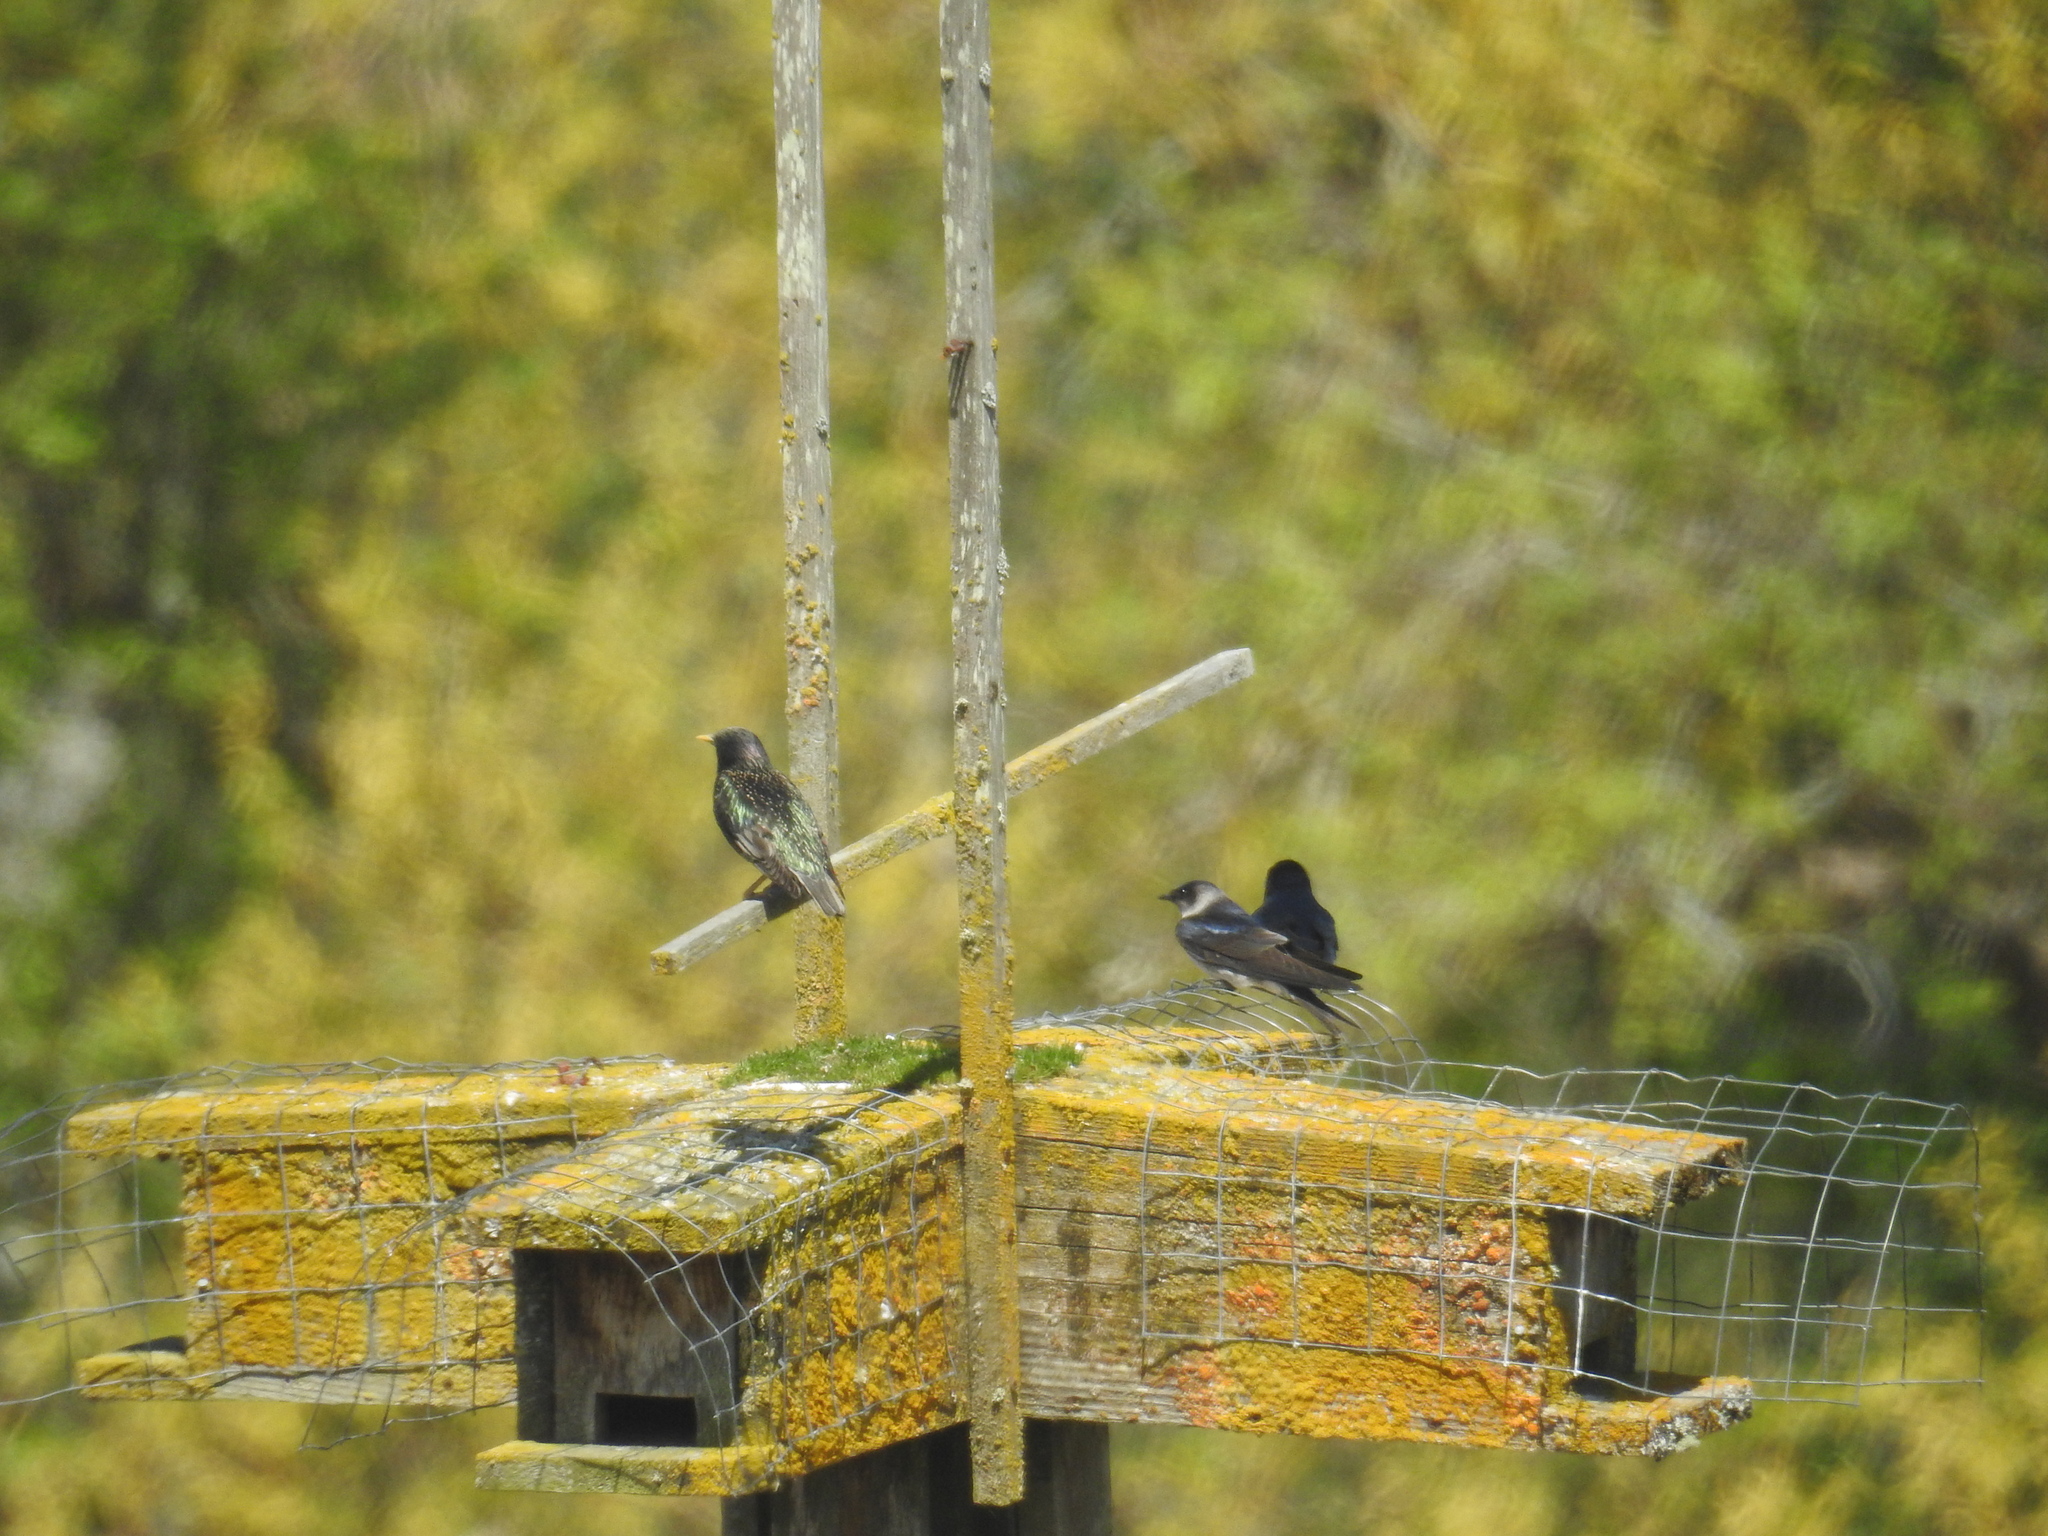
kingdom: Animalia
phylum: Chordata
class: Aves
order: Passeriformes
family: Hirundinidae
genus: Progne
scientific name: Progne subis
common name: Purple martin
